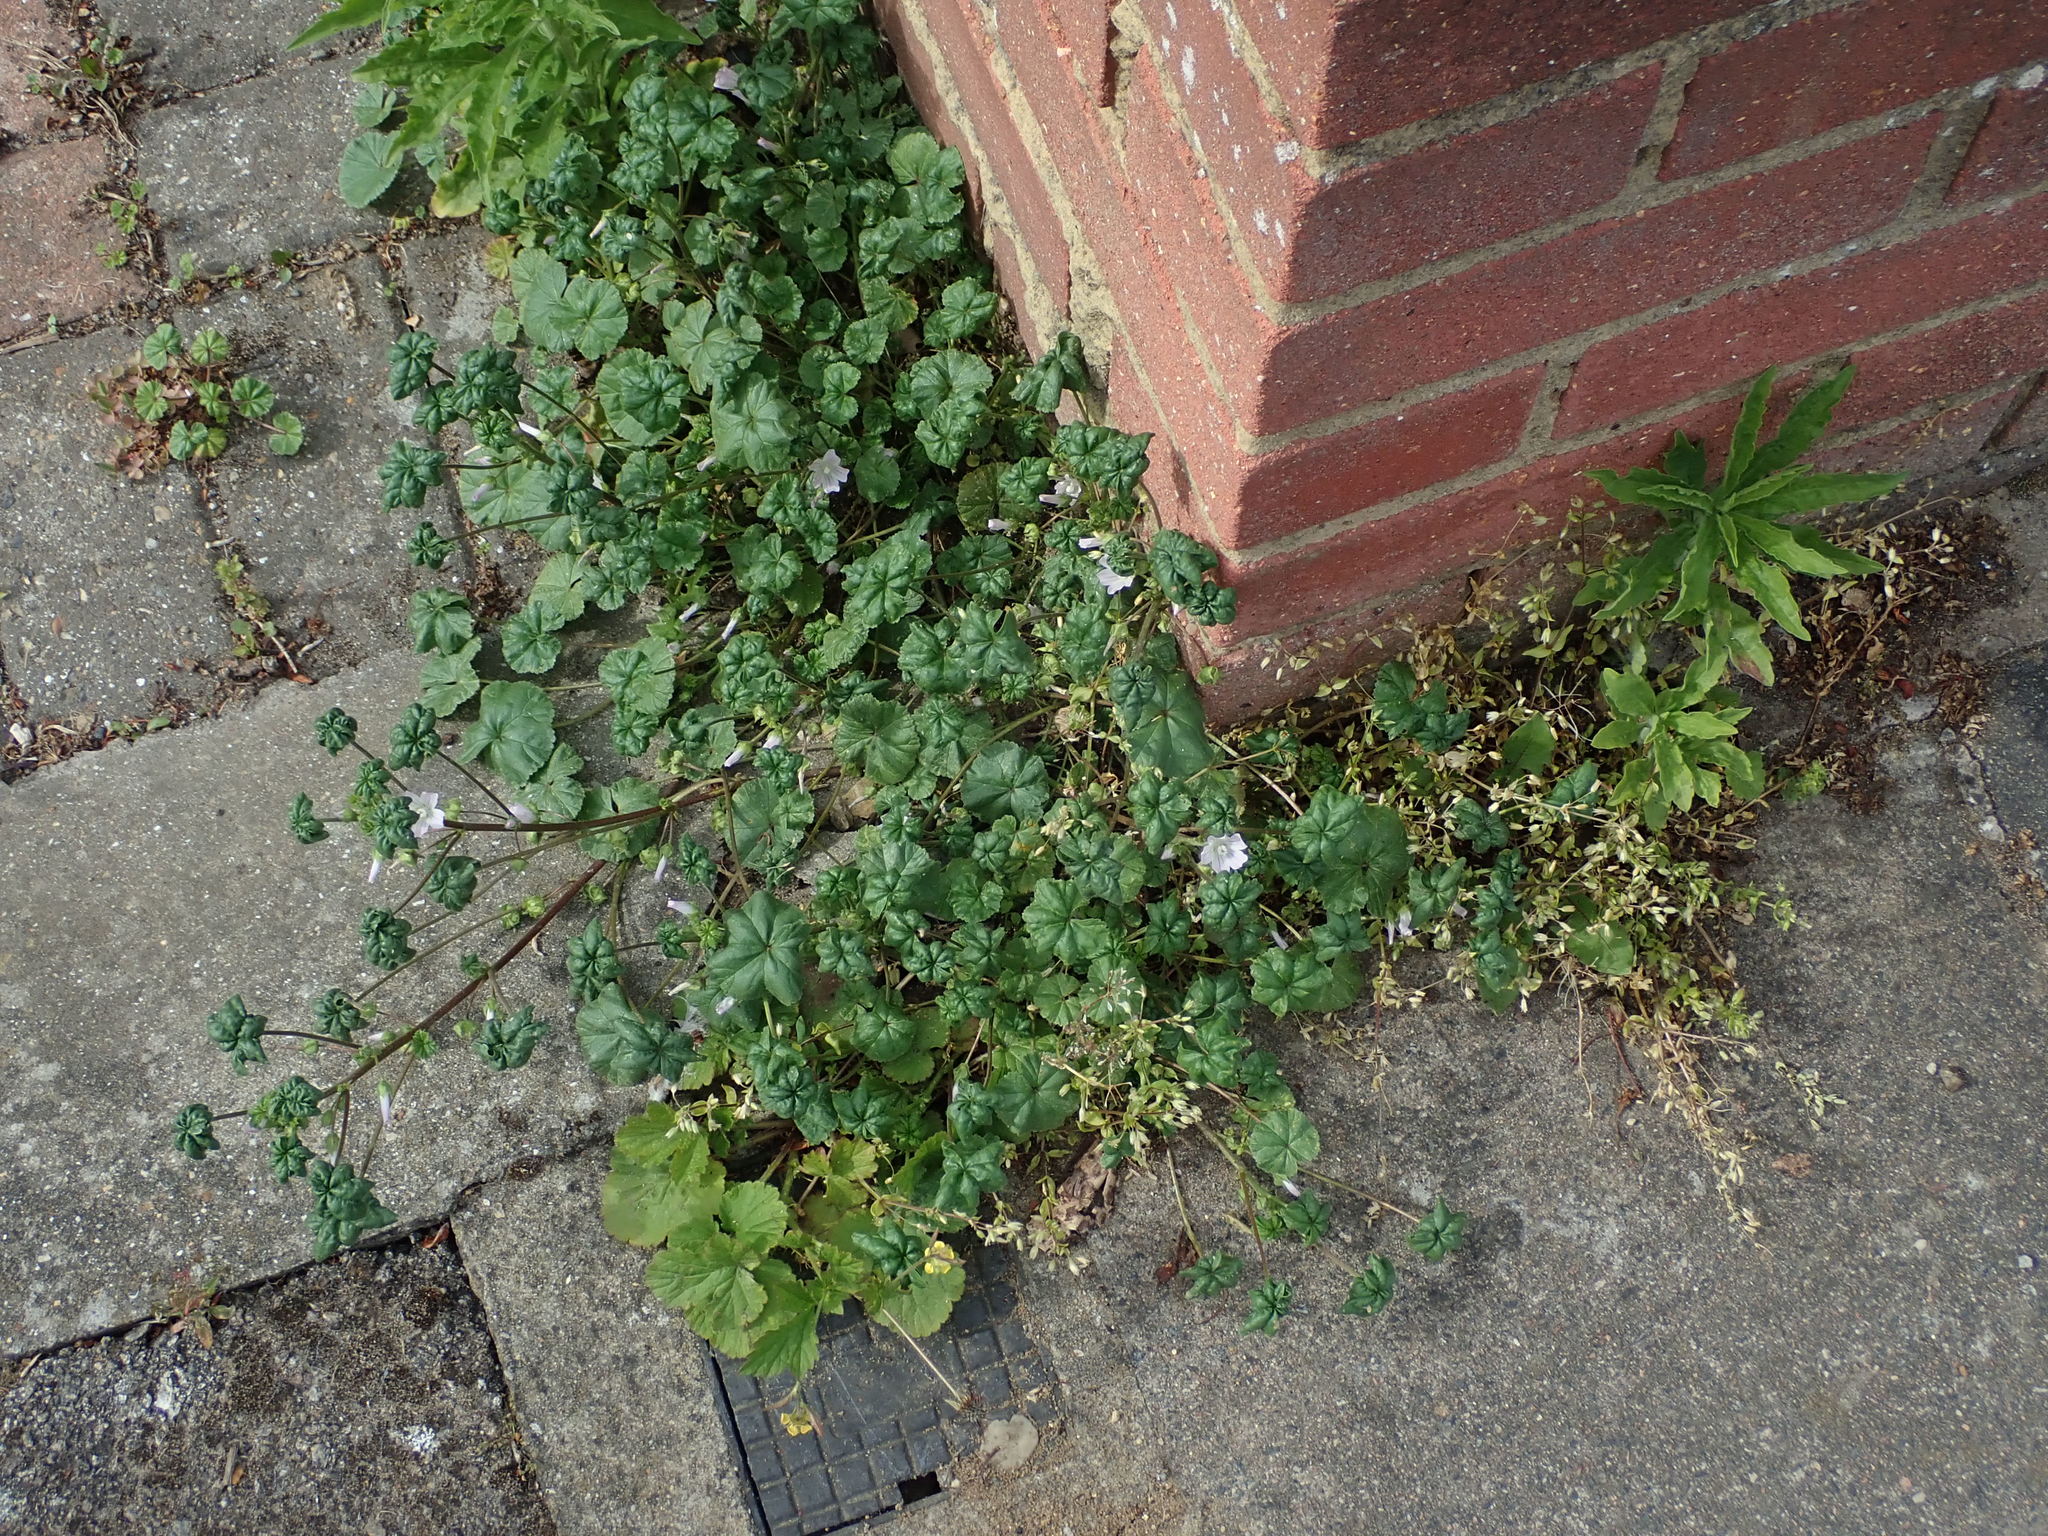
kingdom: Plantae
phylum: Tracheophyta
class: Magnoliopsida
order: Malvales
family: Malvaceae
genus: Malva
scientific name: Malva neglecta
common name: Common mallow
